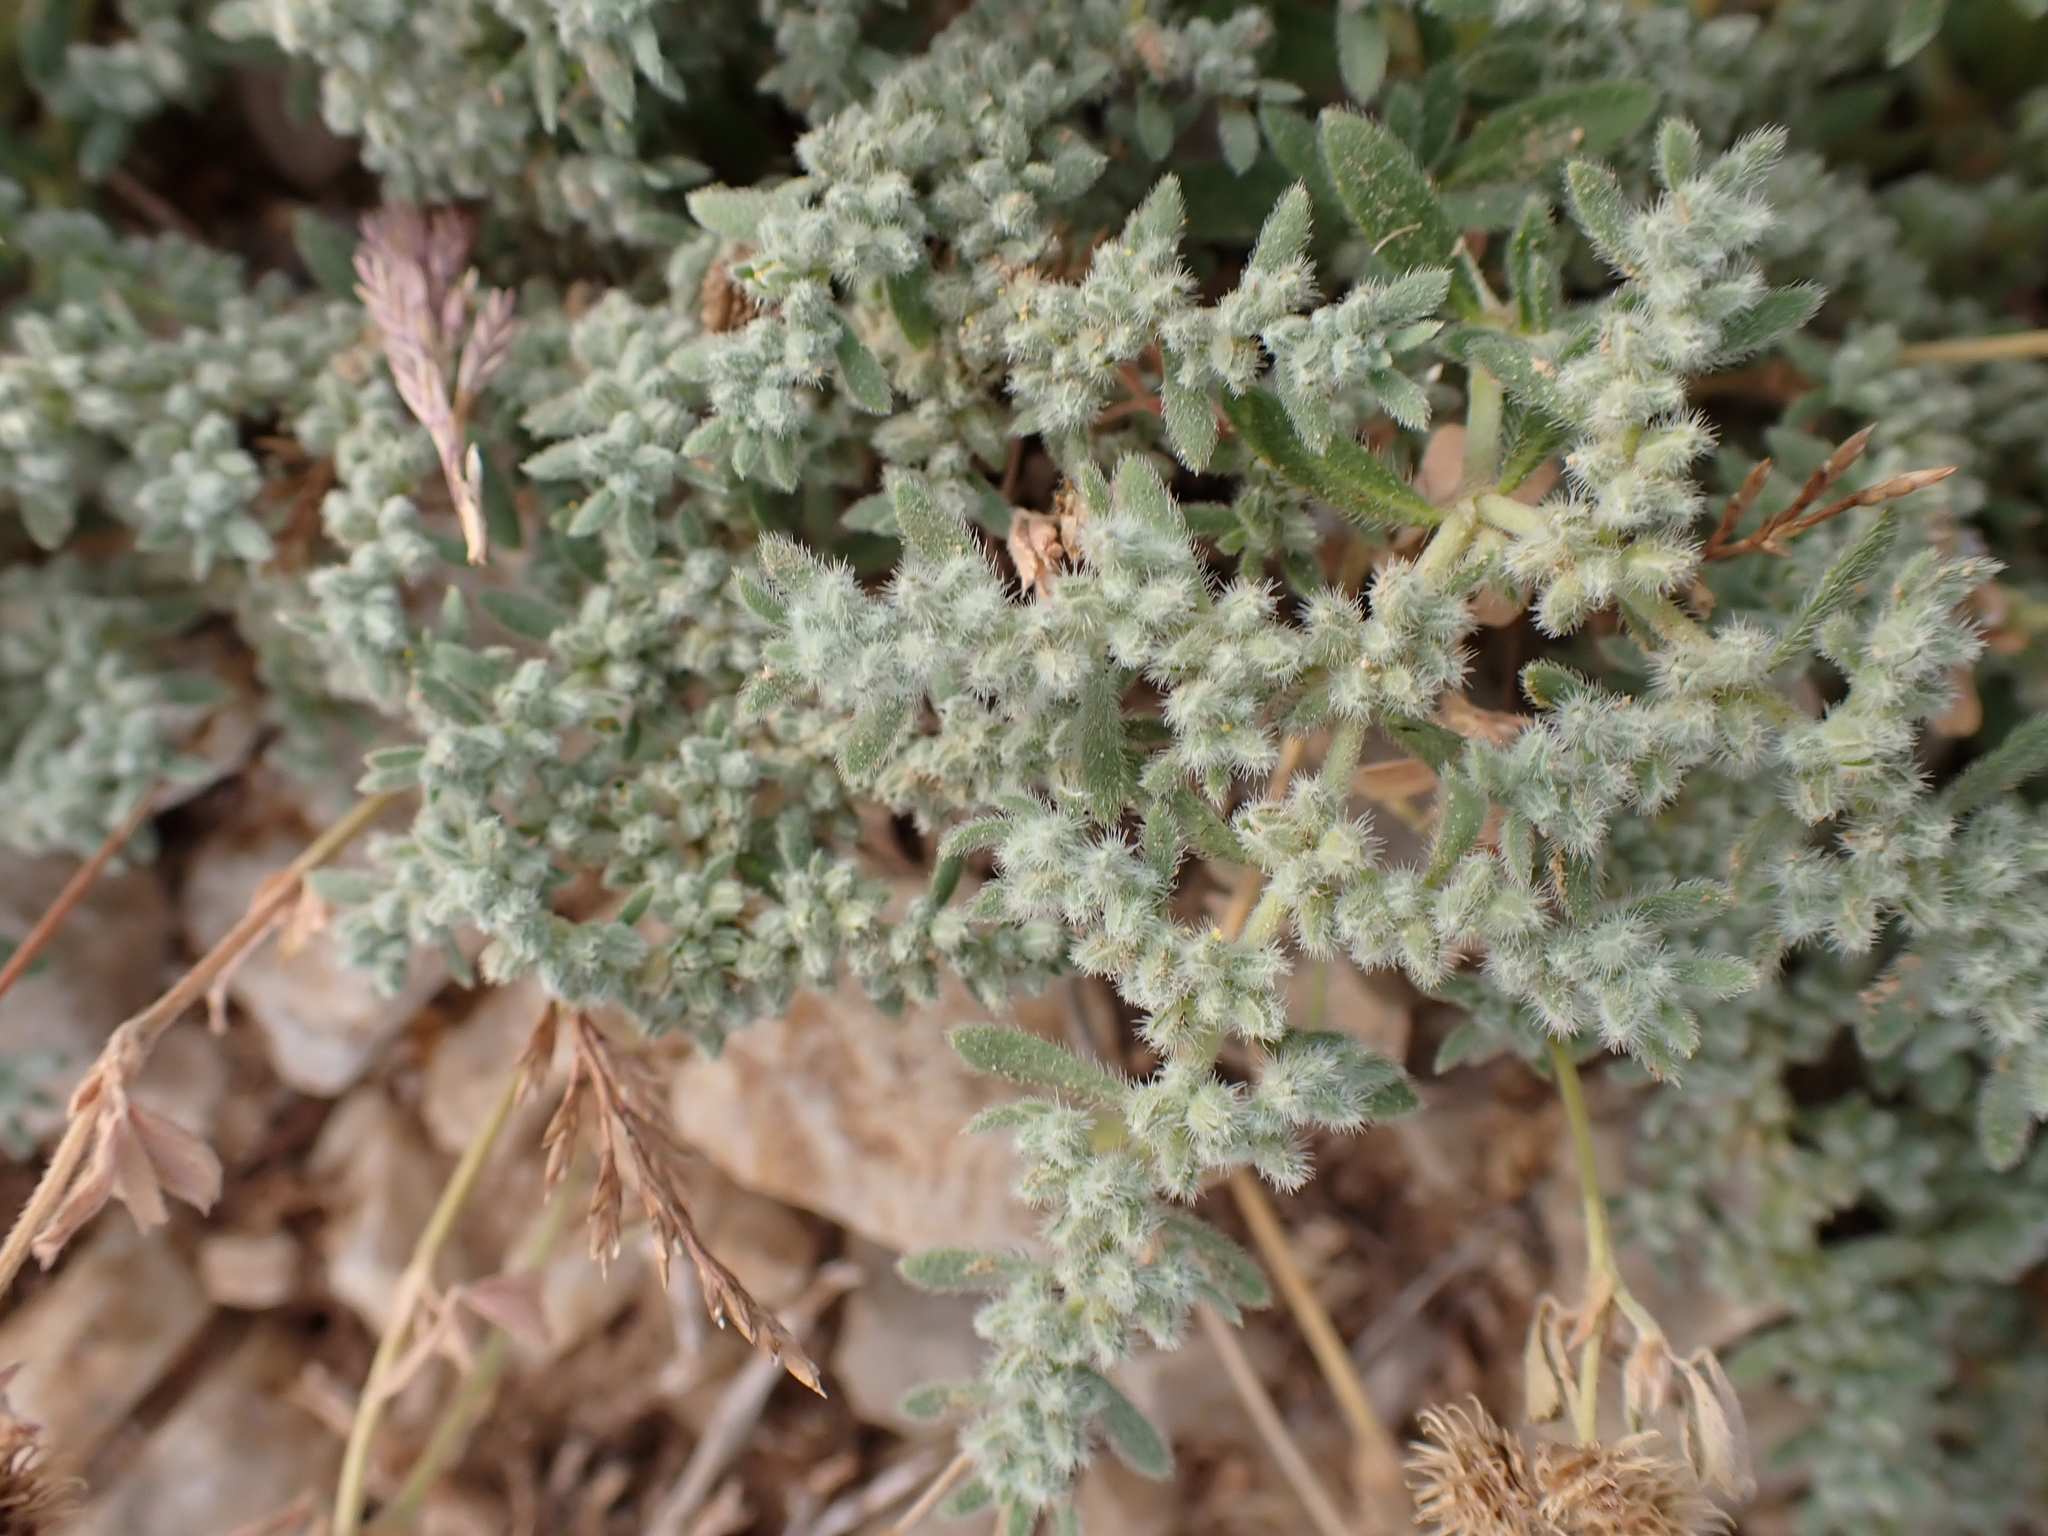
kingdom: Plantae
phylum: Tracheophyta
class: Magnoliopsida
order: Caryophyllales
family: Caryophyllaceae
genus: Herniaria
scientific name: Herniaria incana
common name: Gray rupturewort
